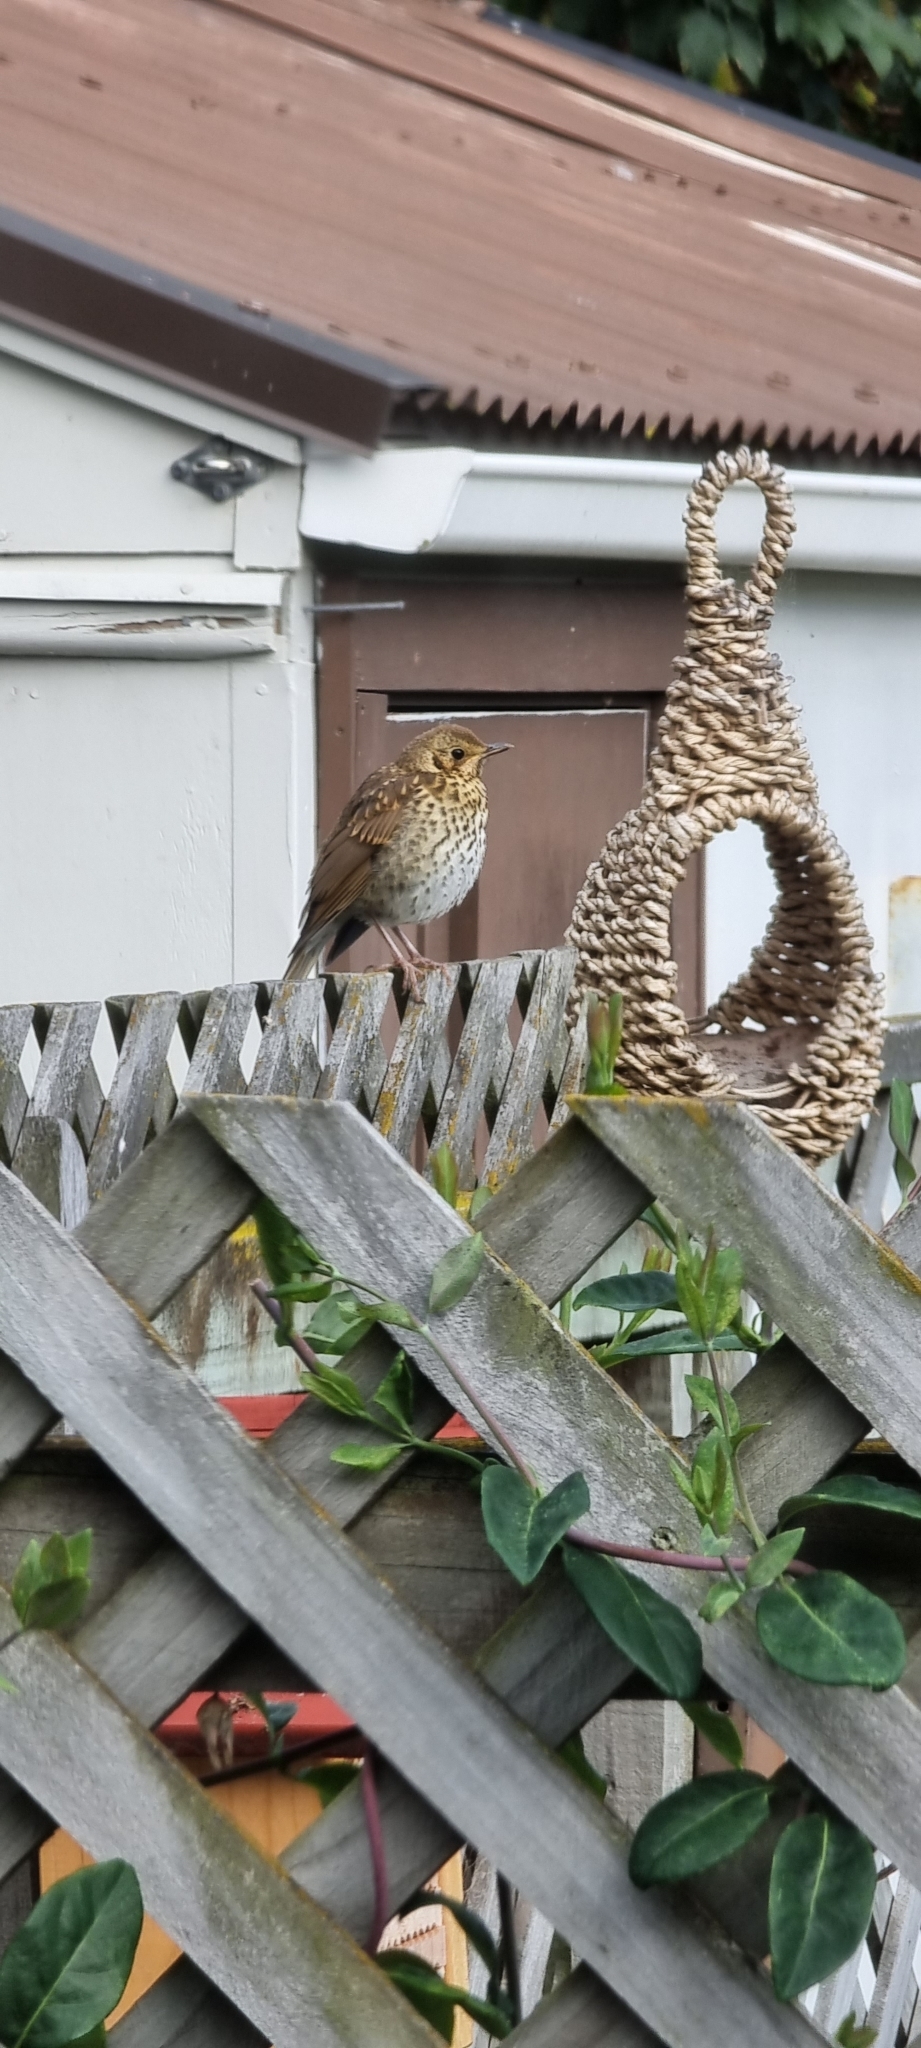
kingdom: Animalia
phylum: Chordata
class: Aves
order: Passeriformes
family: Turdidae
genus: Turdus
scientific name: Turdus philomelos
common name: Song thrush
